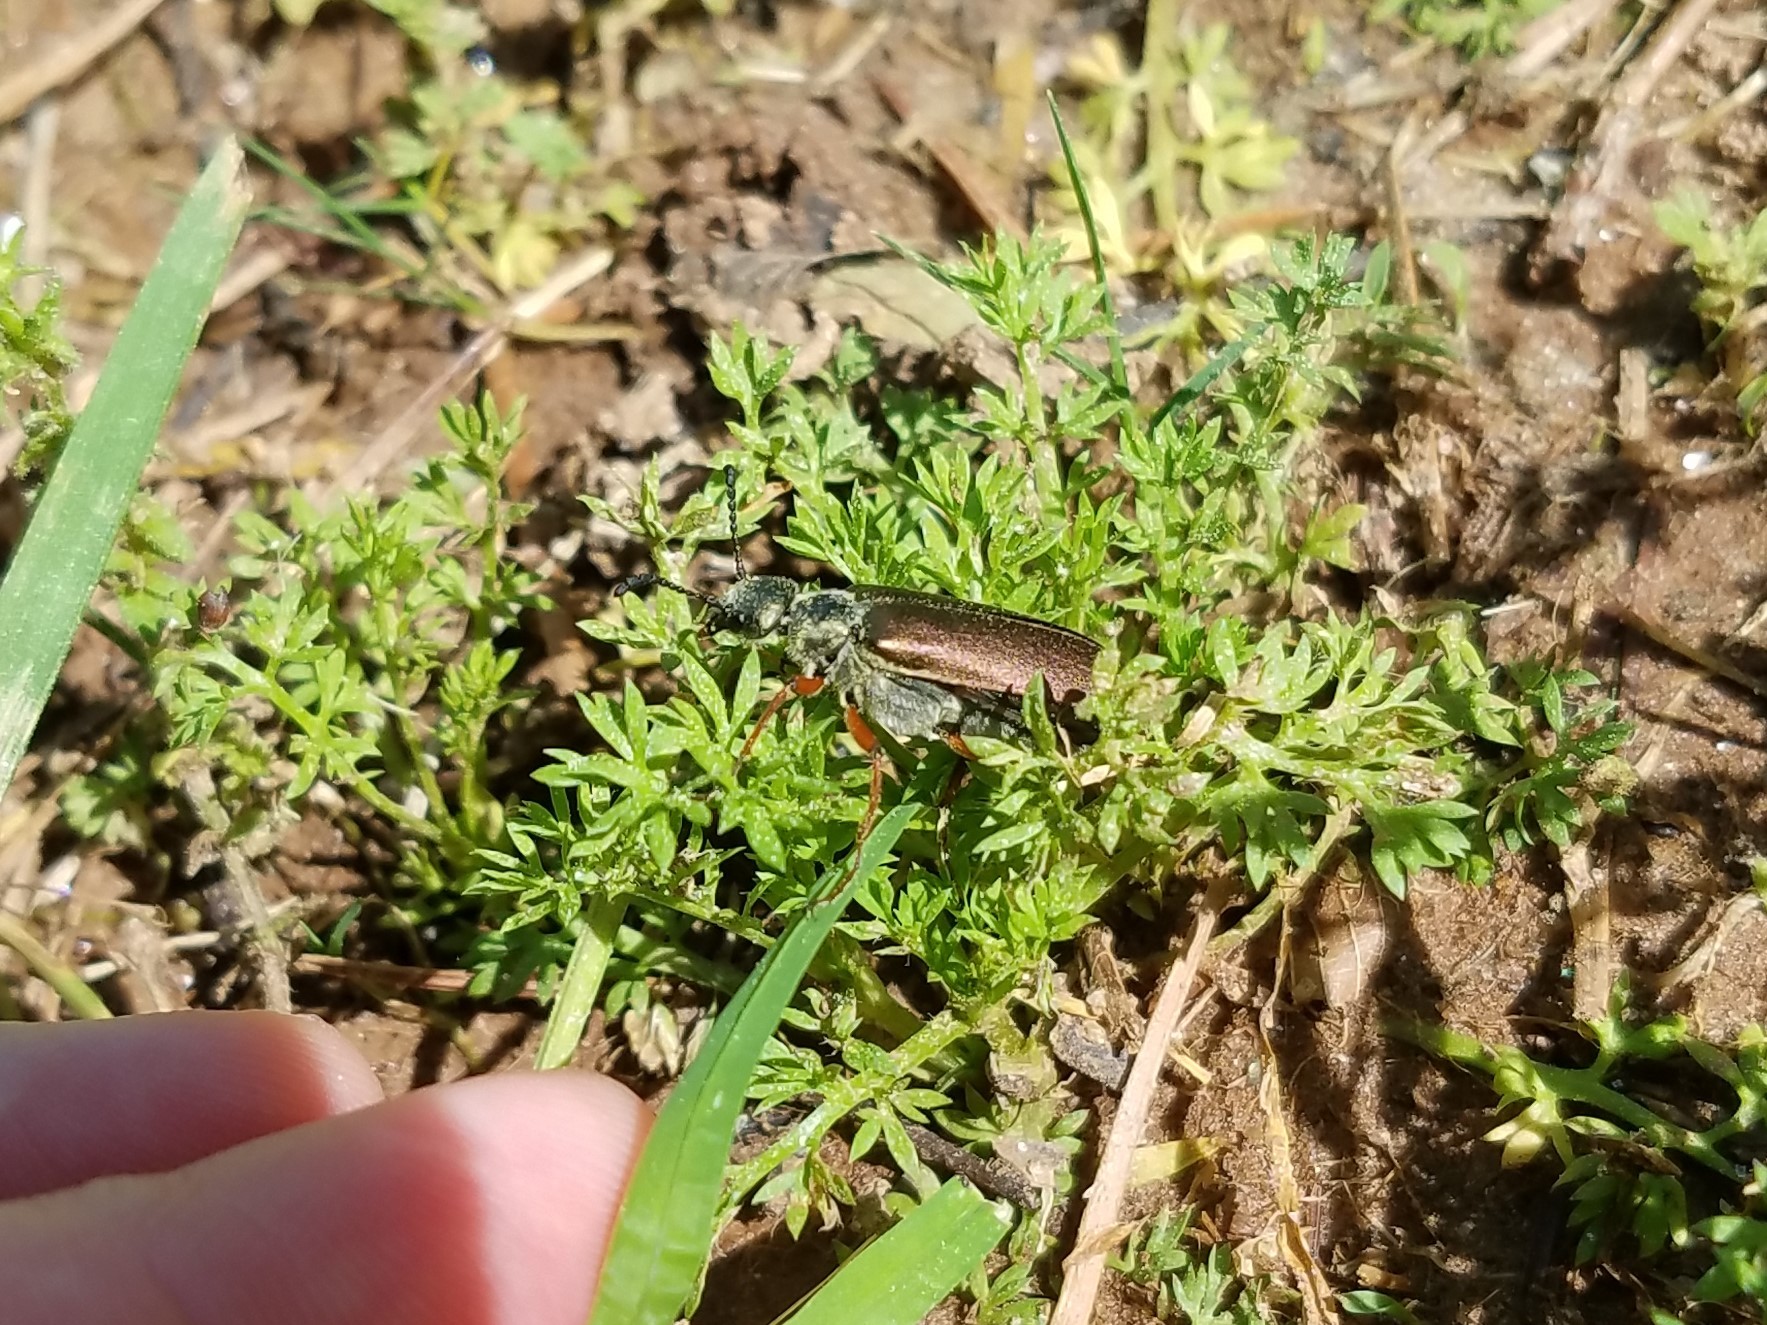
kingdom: Animalia
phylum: Arthropoda
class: Insecta
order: Coleoptera
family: Meloidae
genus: Lytta
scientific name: Lytta aenea
